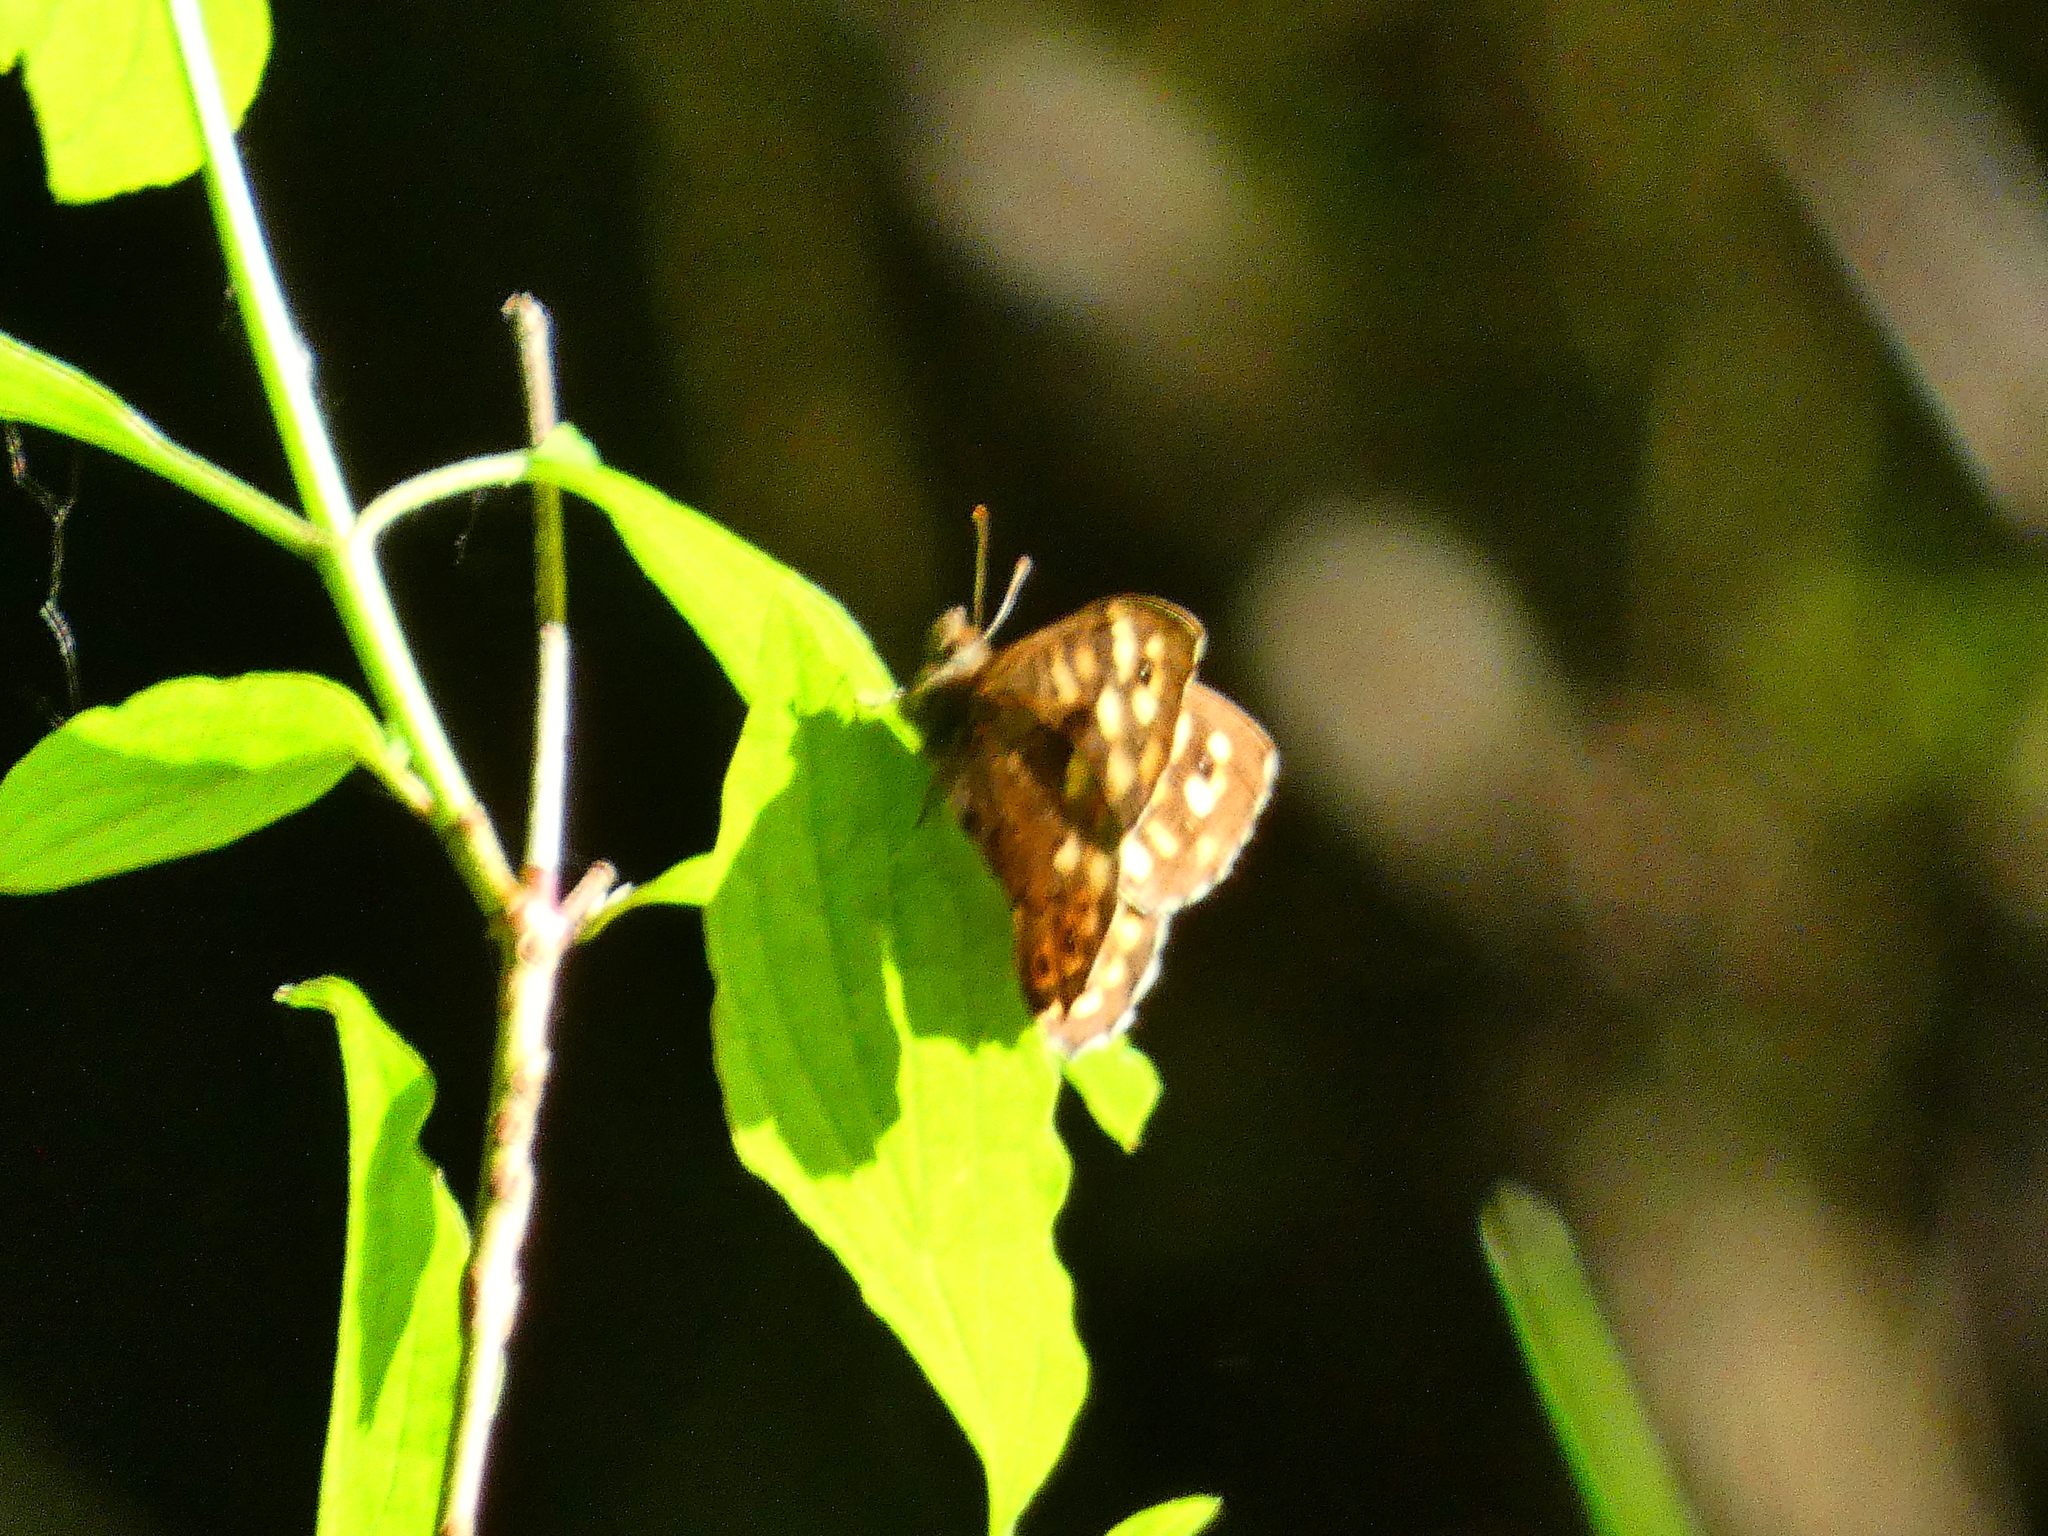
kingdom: Animalia
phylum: Arthropoda
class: Insecta
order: Lepidoptera
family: Nymphalidae
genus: Pararge
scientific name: Pararge aegeria
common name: Speckled wood
